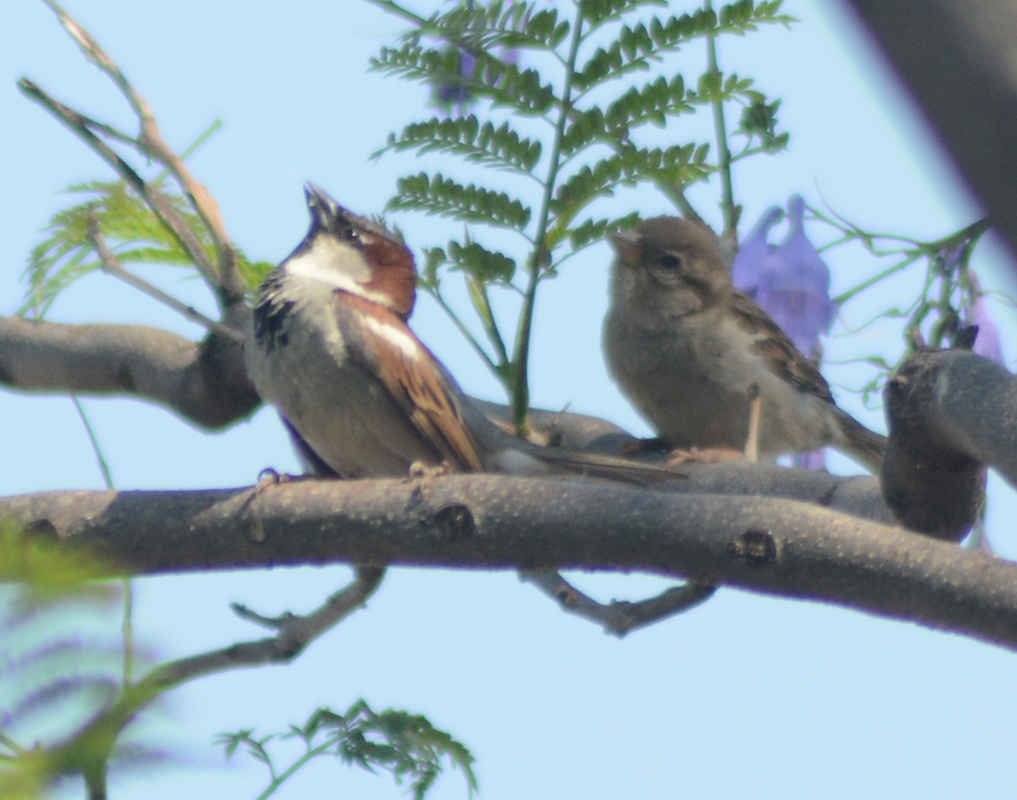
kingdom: Animalia
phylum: Chordata
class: Aves
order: Passeriformes
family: Passeridae
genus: Passer
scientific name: Passer domesticus
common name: House sparrow
